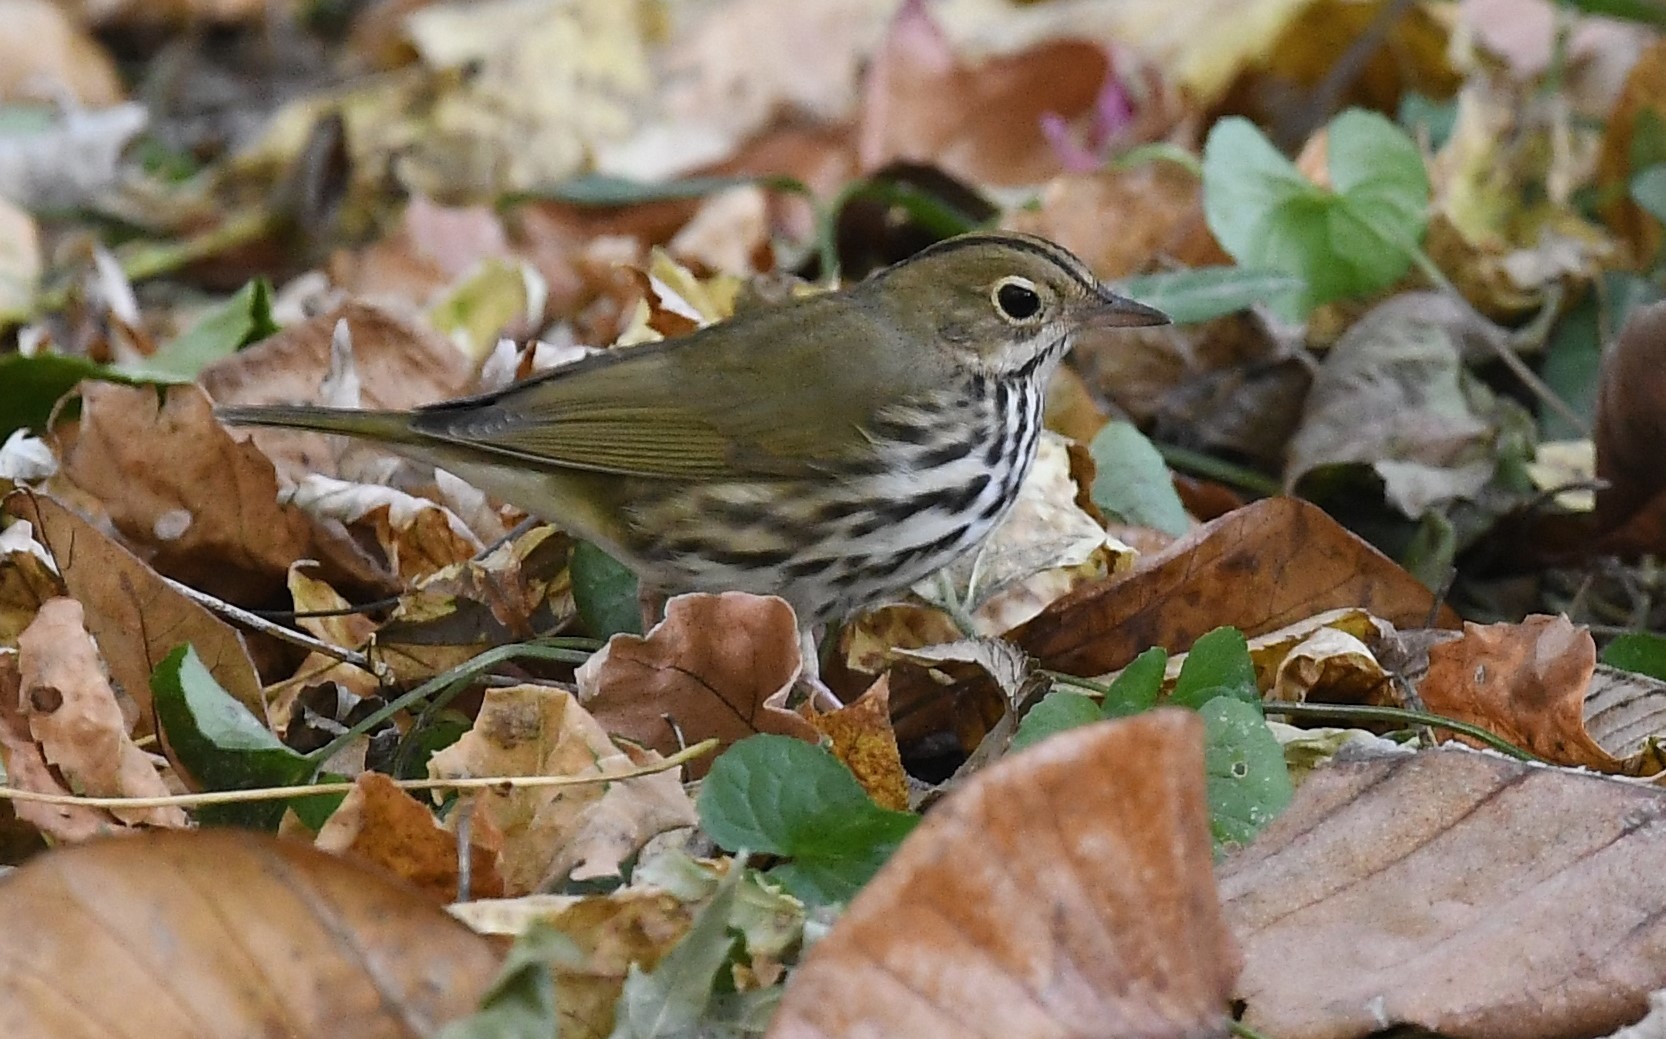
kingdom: Animalia
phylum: Chordata
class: Aves
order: Passeriformes
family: Parulidae
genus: Seiurus
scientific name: Seiurus aurocapilla
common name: Ovenbird
